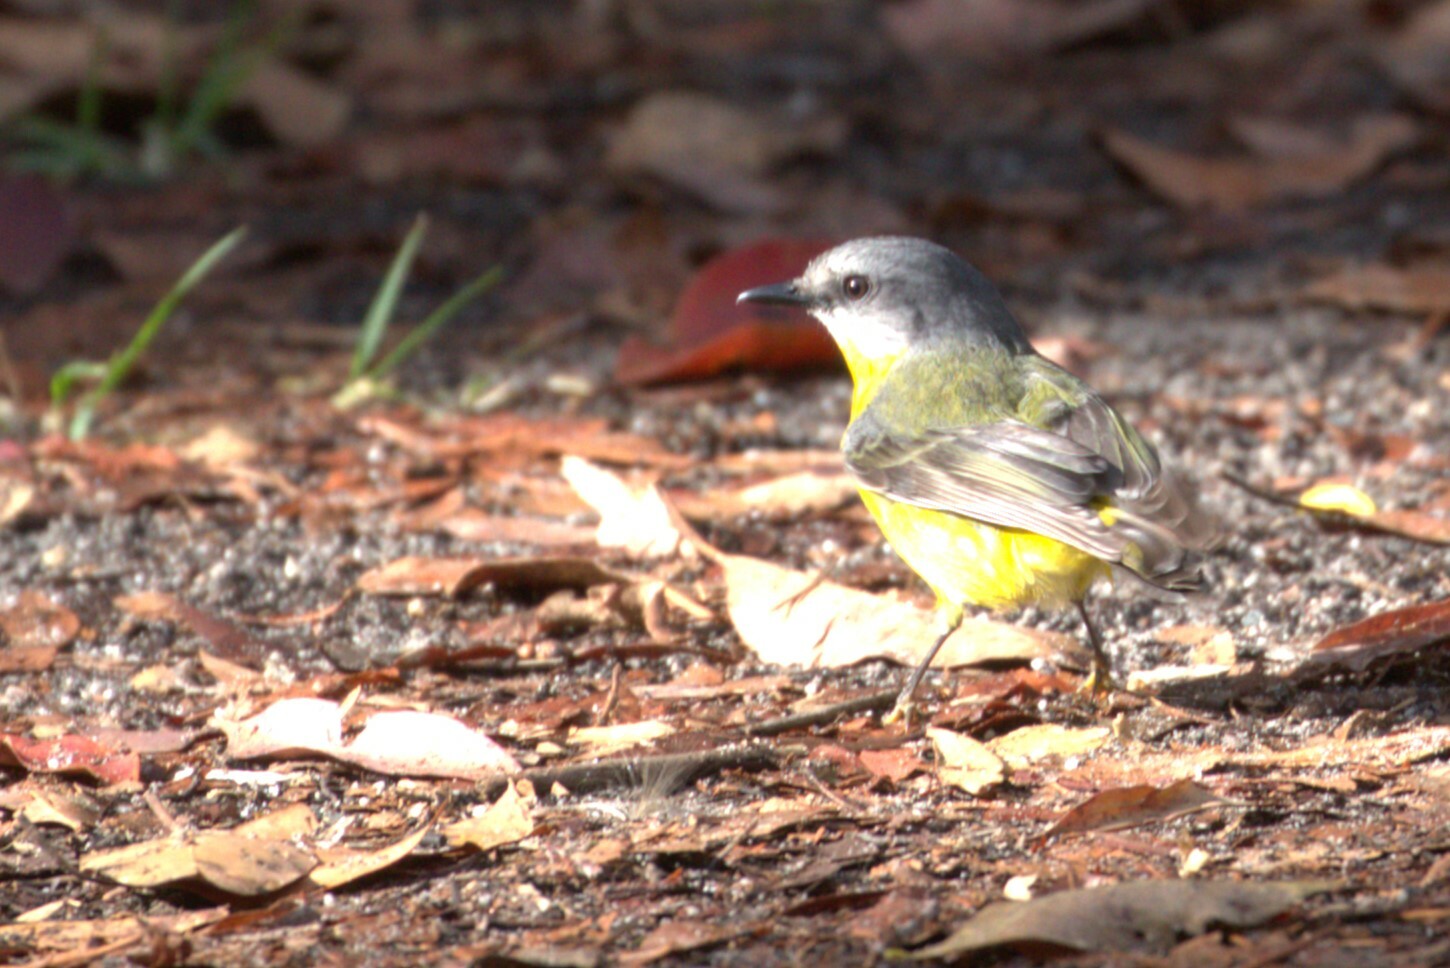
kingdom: Animalia
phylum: Chordata
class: Aves
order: Passeriformes
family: Petroicidae
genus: Eopsaltria
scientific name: Eopsaltria australis
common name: Eastern yellow robin
